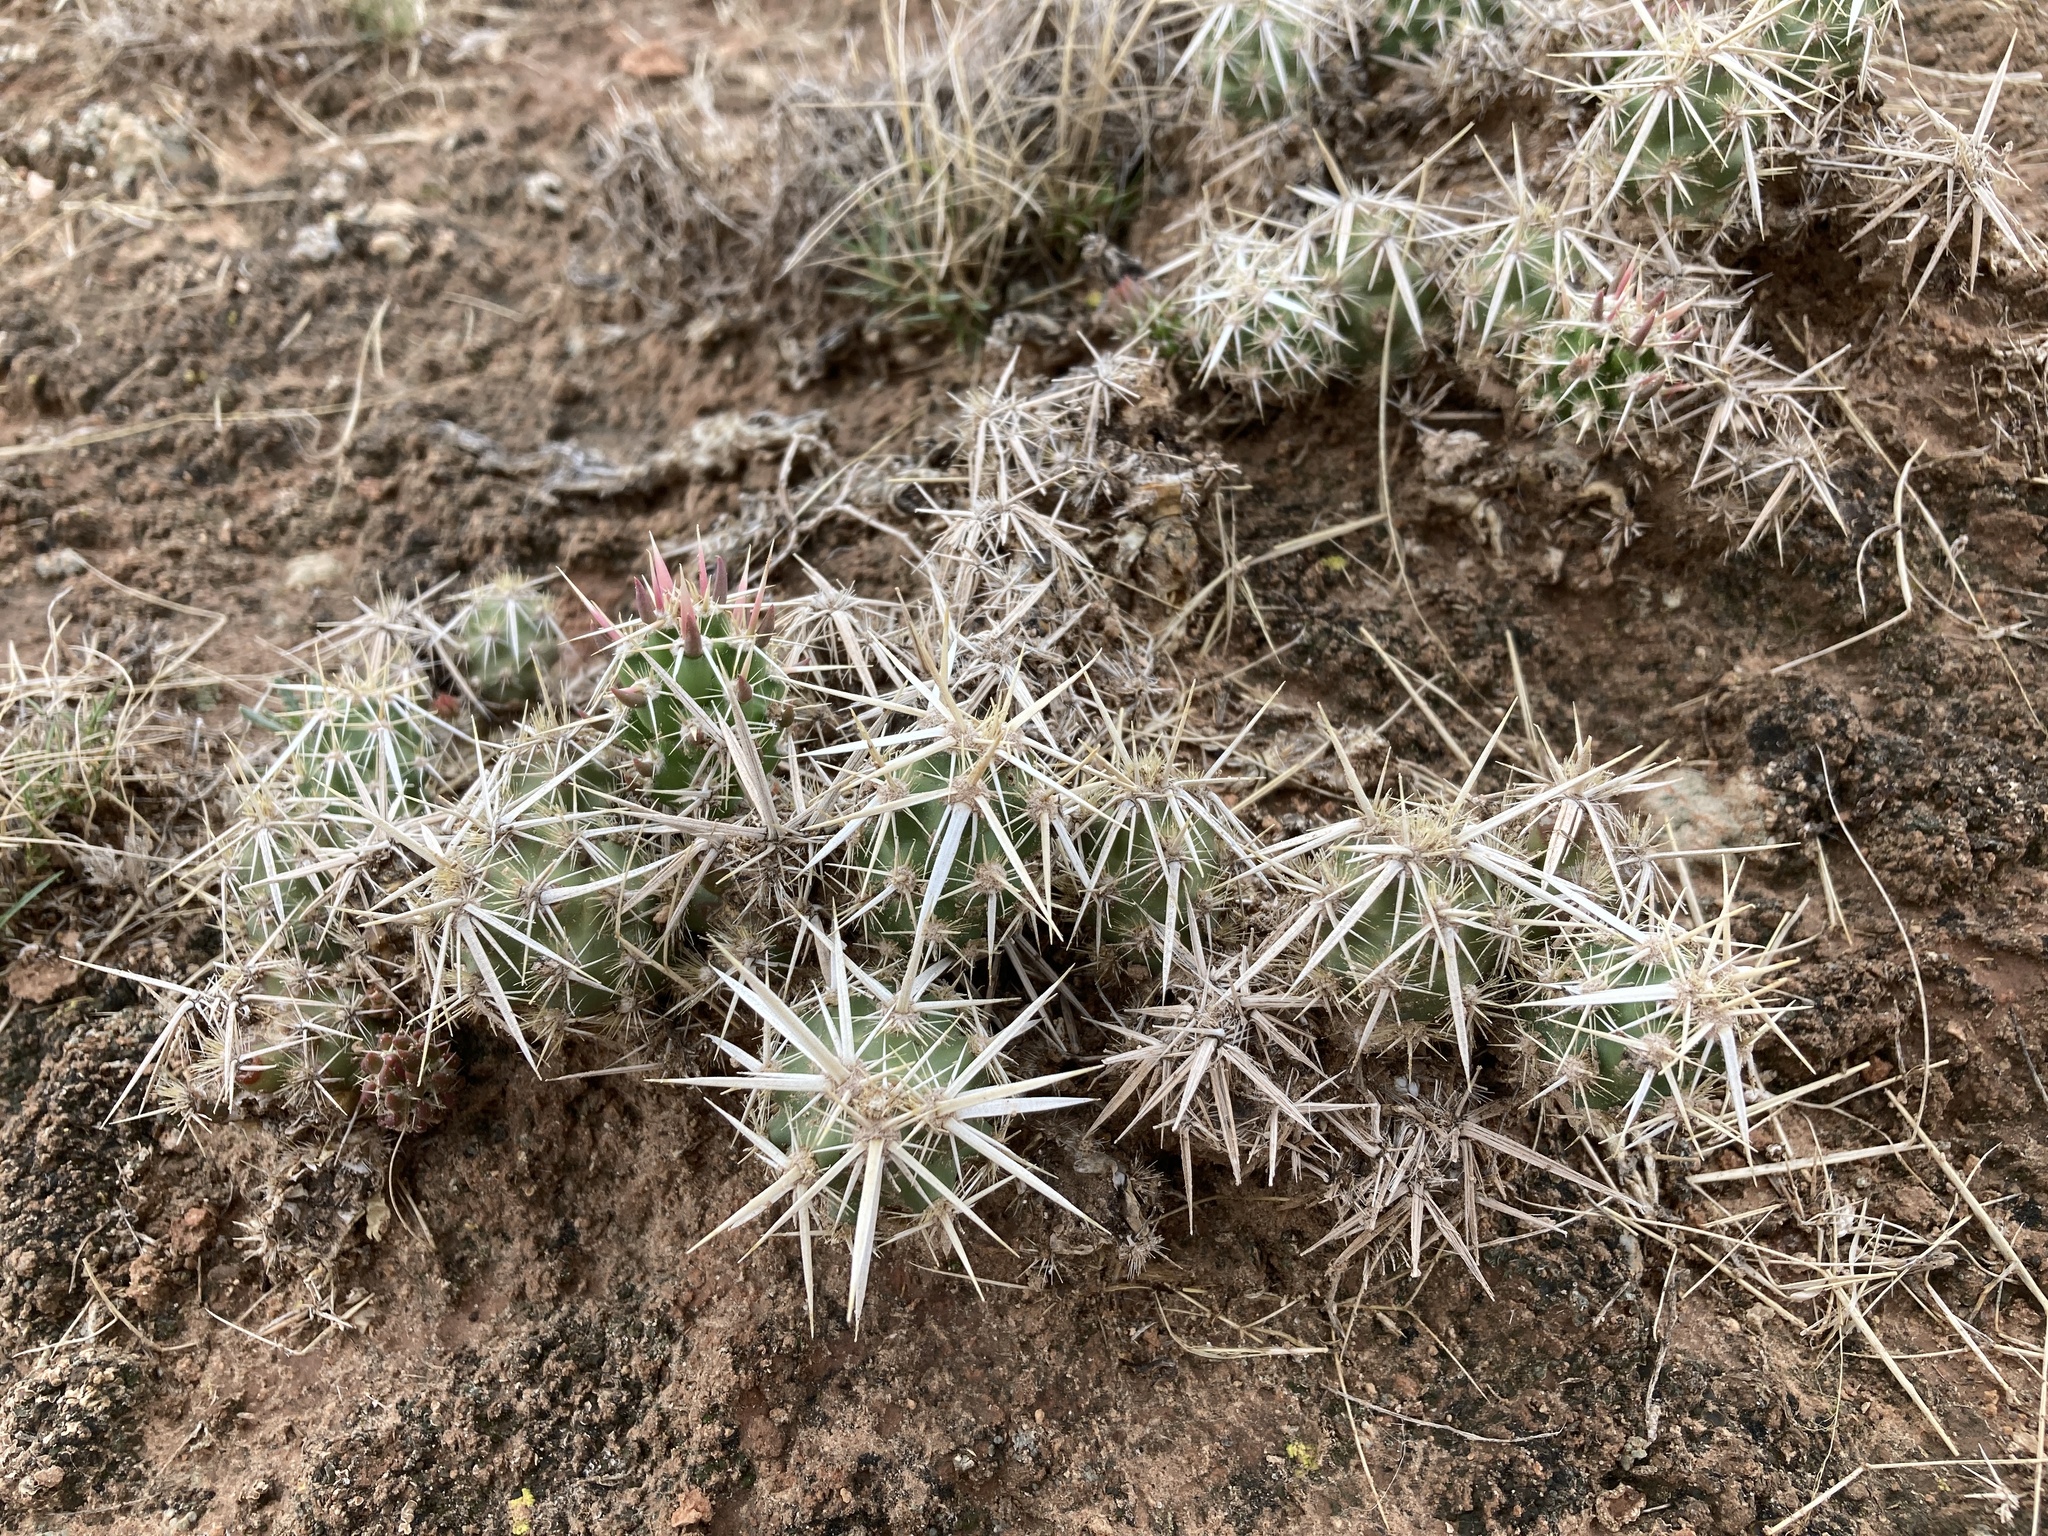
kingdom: Plantae
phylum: Tracheophyta
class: Magnoliopsida
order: Caryophyllales
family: Cactaceae
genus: Grusonia
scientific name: Grusonia clavata
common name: Club cholla
